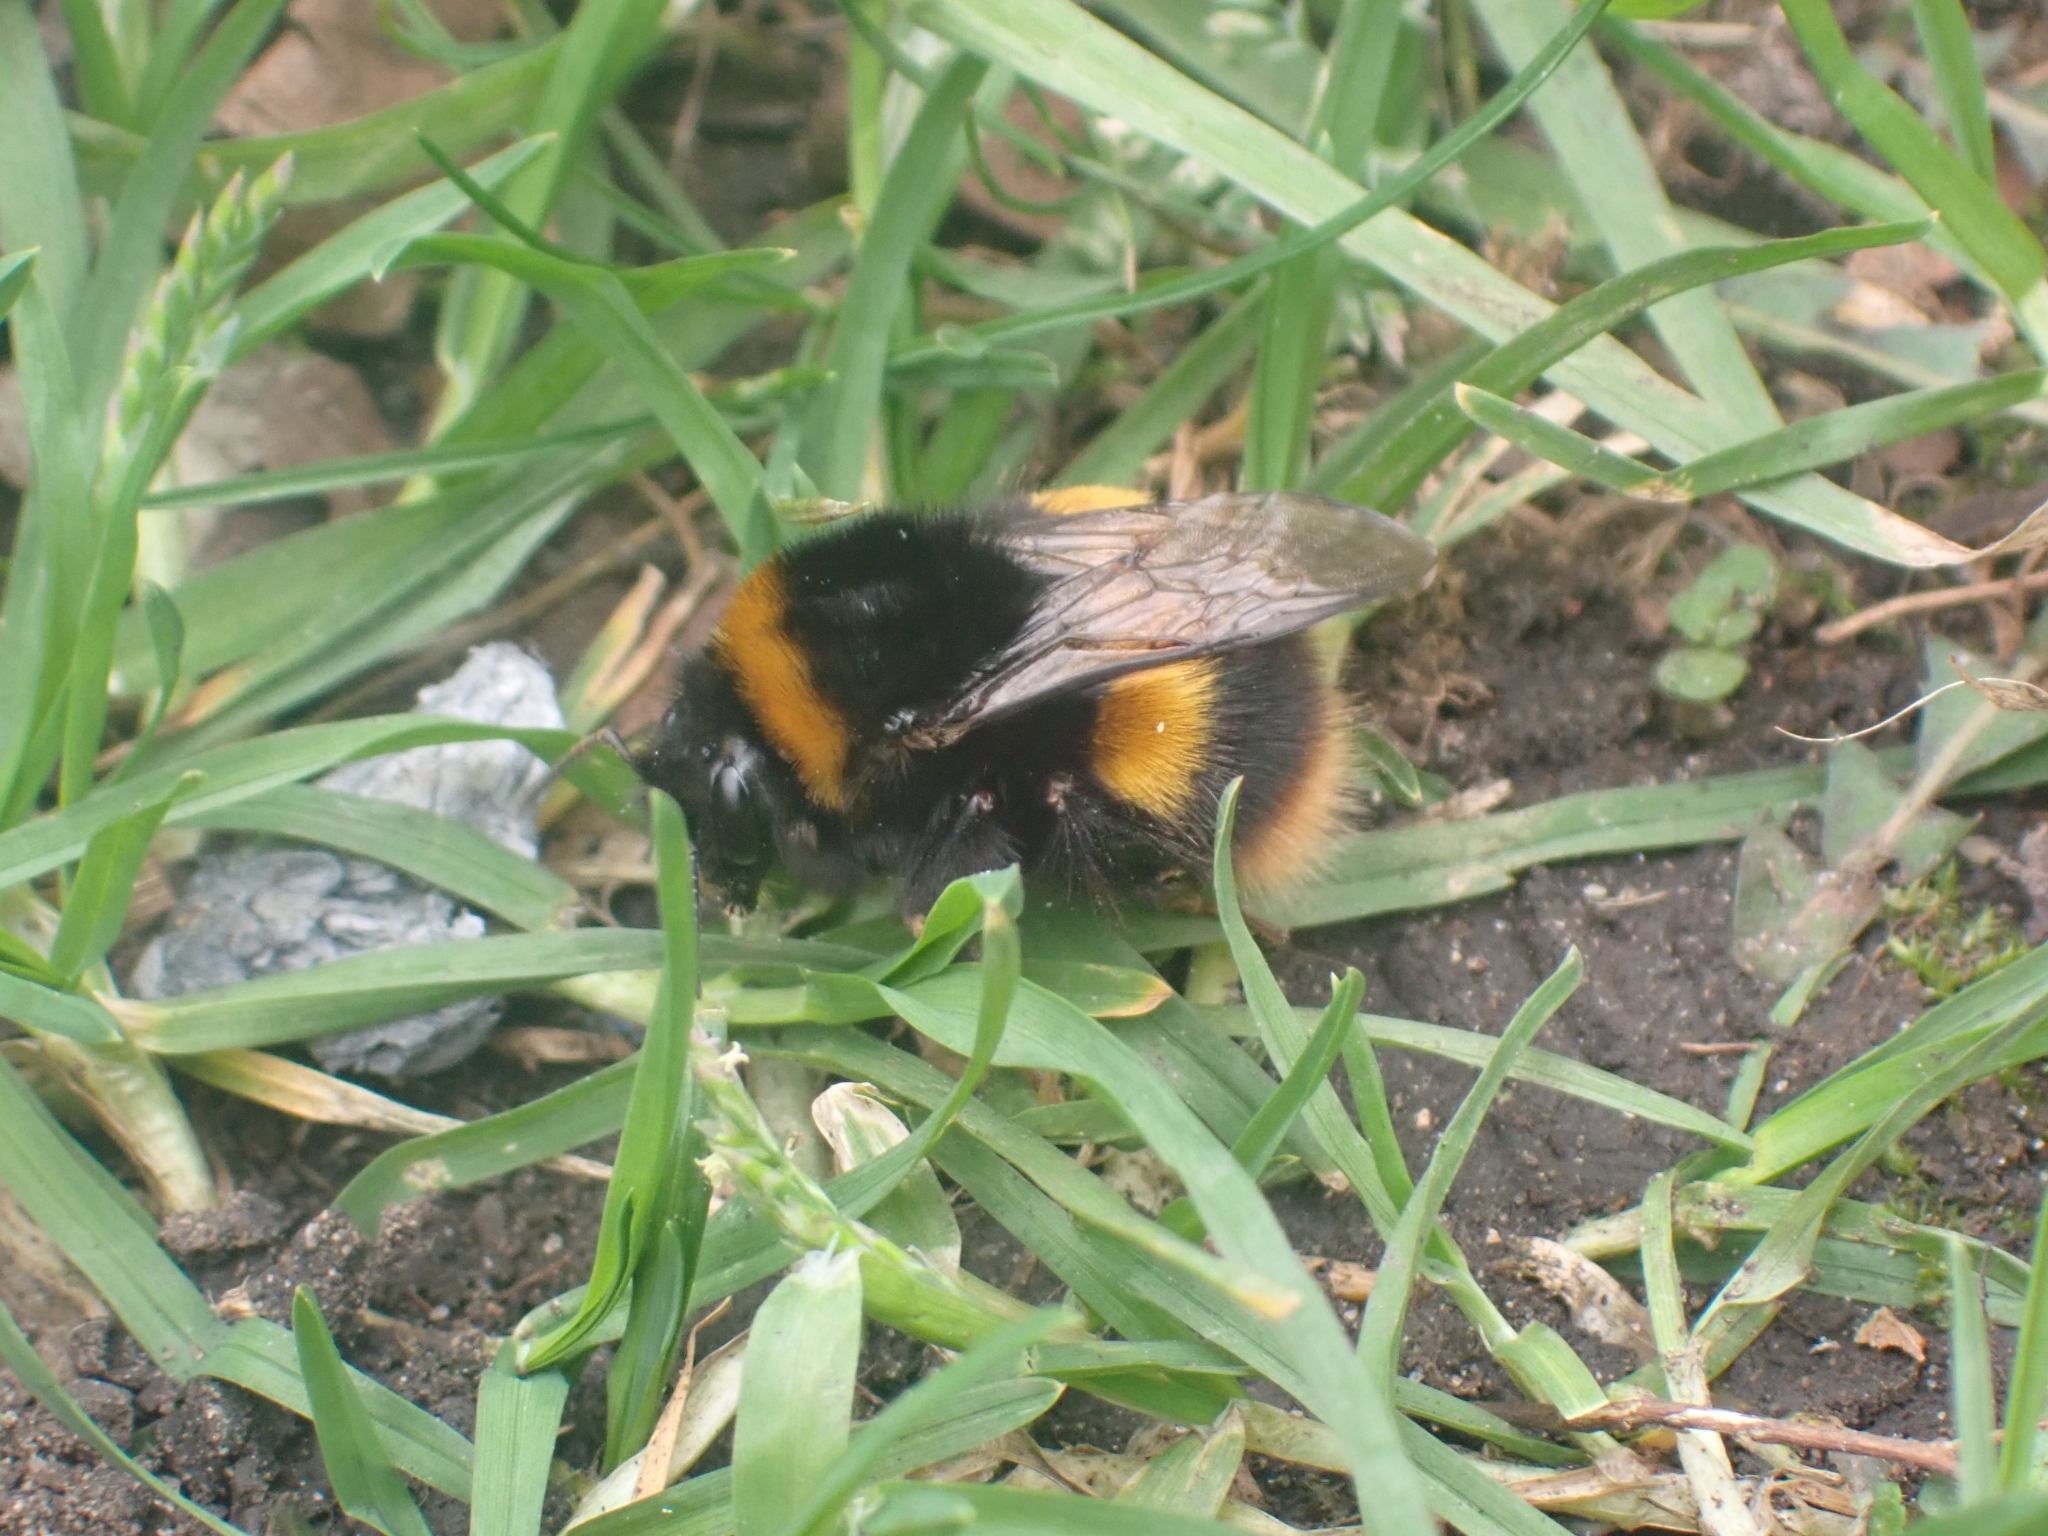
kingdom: Animalia
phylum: Arthropoda
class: Insecta
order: Hymenoptera
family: Apidae
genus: Bombus
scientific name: Bombus terrestris
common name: Buff-tailed bumblebee
